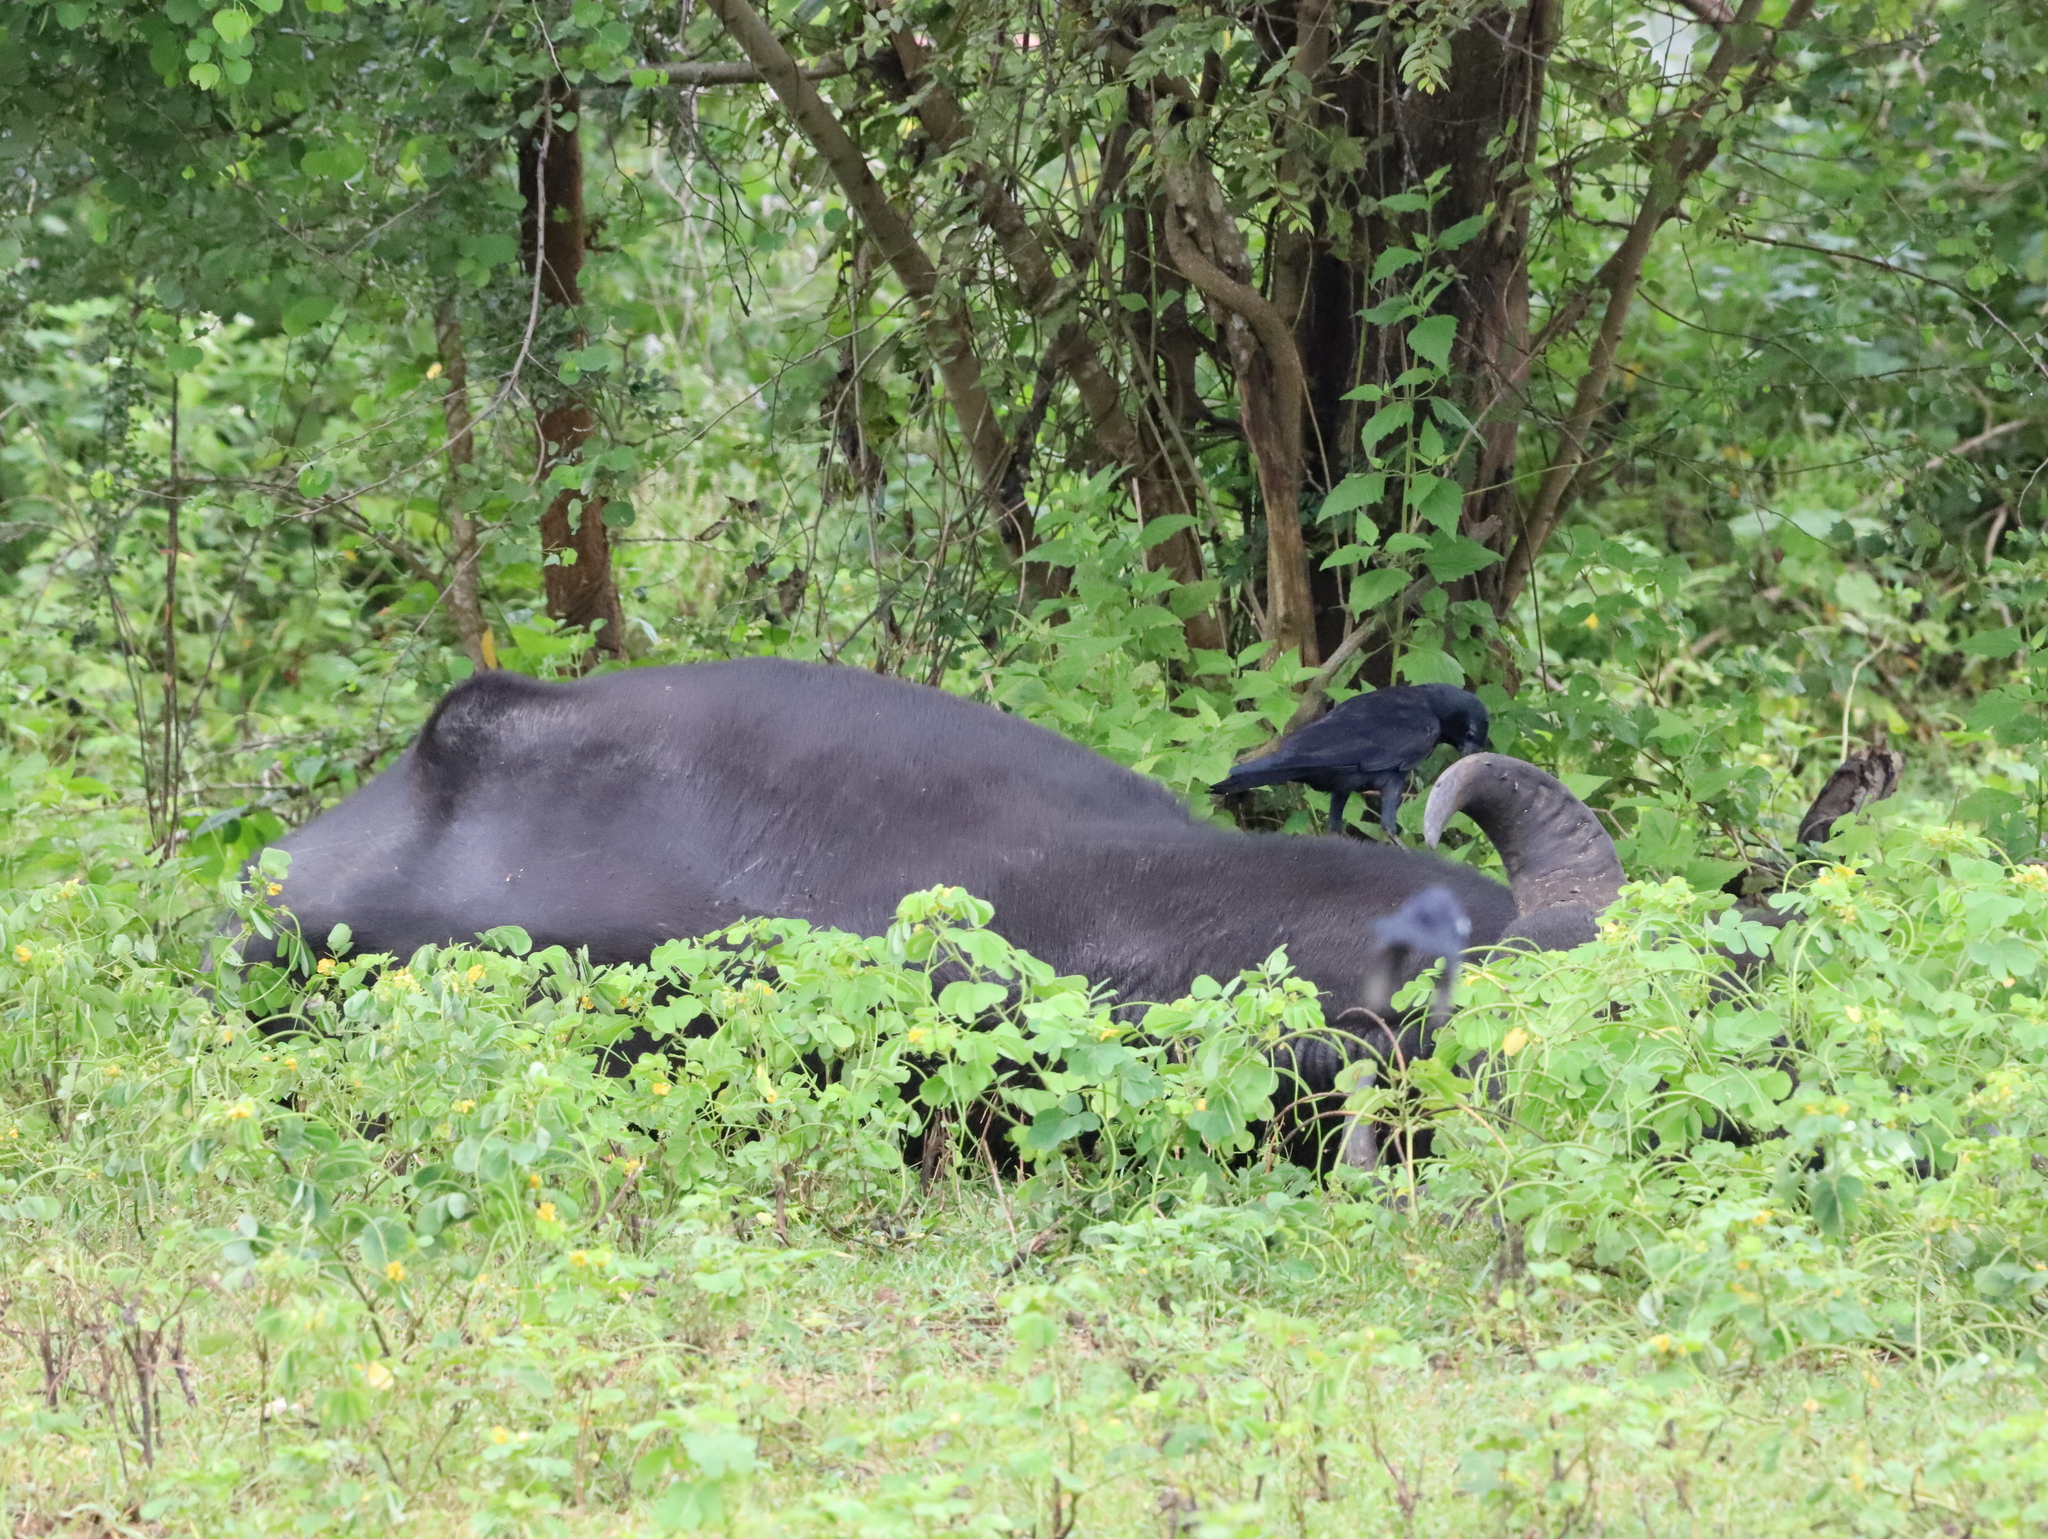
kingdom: Animalia
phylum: Chordata
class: Aves
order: Passeriformes
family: Corvidae
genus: Corvus
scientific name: Corvus macrorhynchos
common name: Large-billed crow
